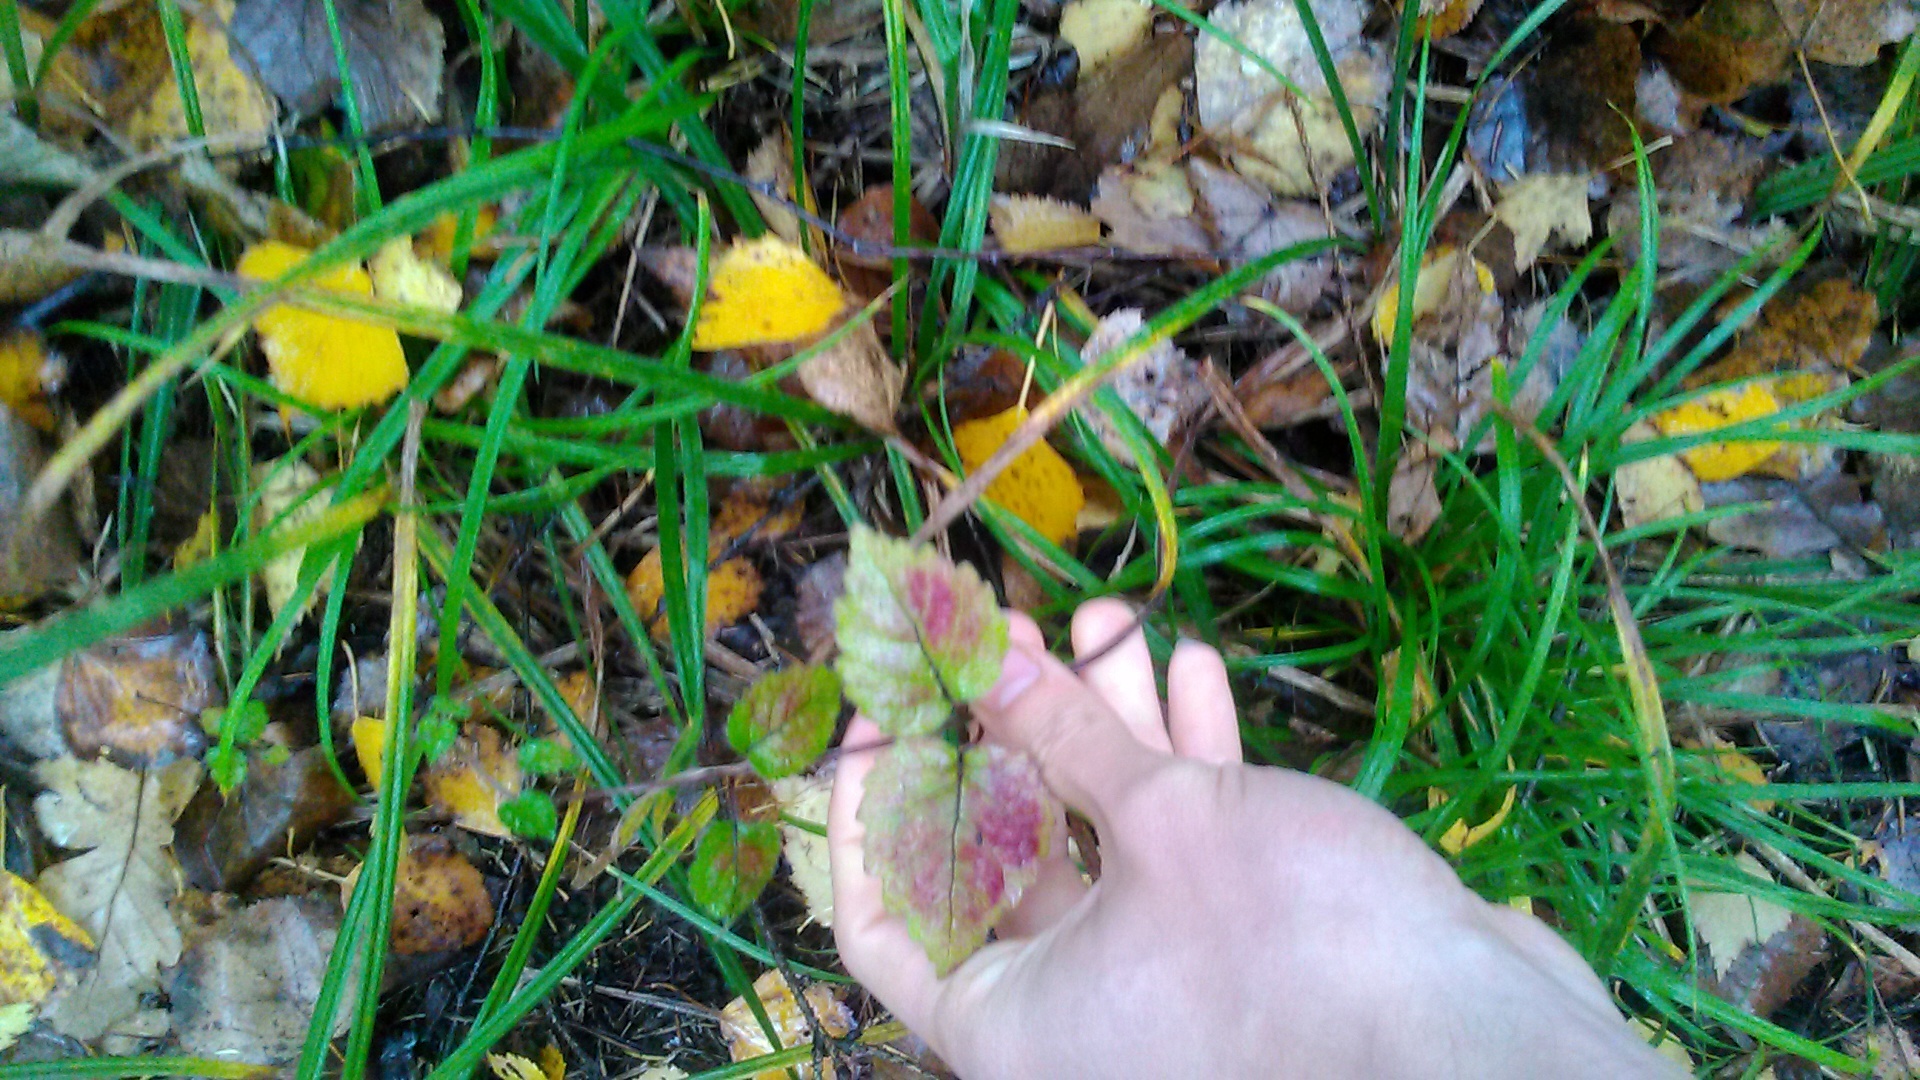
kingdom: Plantae
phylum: Tracheophyta
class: Magnoliopsida
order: Lamiales
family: Lamiaceae
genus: Lamium
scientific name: Lamium galeobdolon
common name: Yellow archangel
